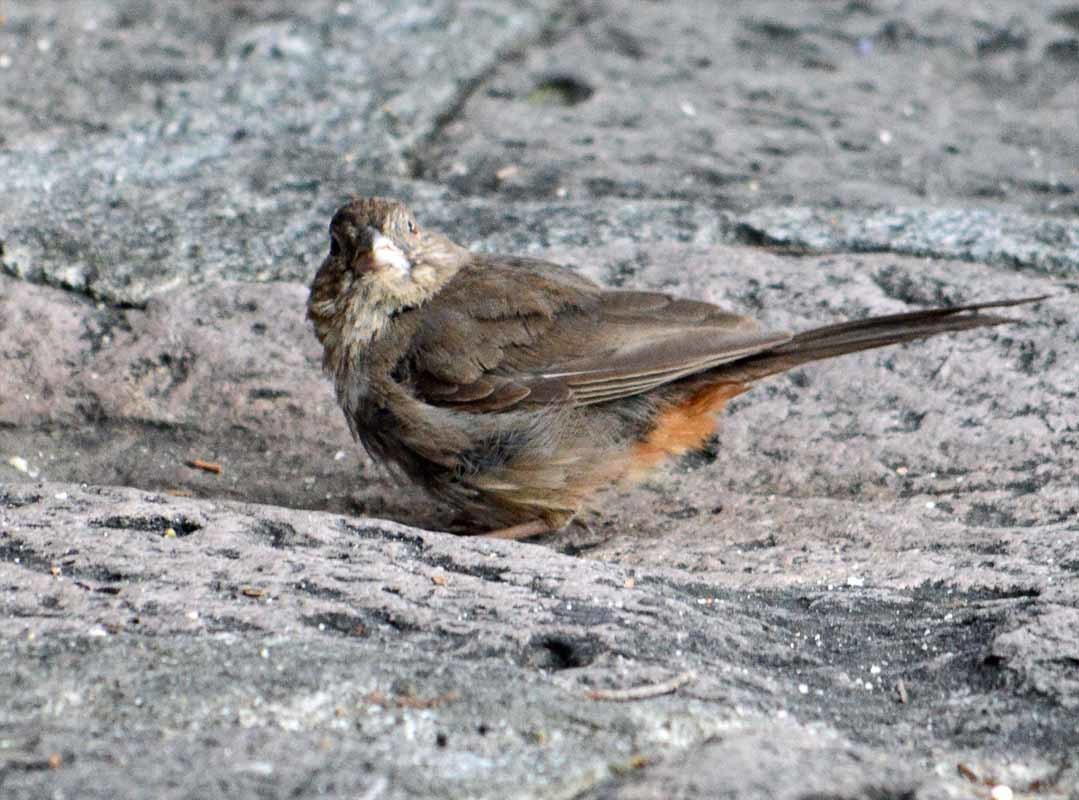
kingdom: Animalia
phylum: Chordata
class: Aves
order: Passeriformes
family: Passerellidae
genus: Melozone
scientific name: Melozone fusca
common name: Canyon towhee
